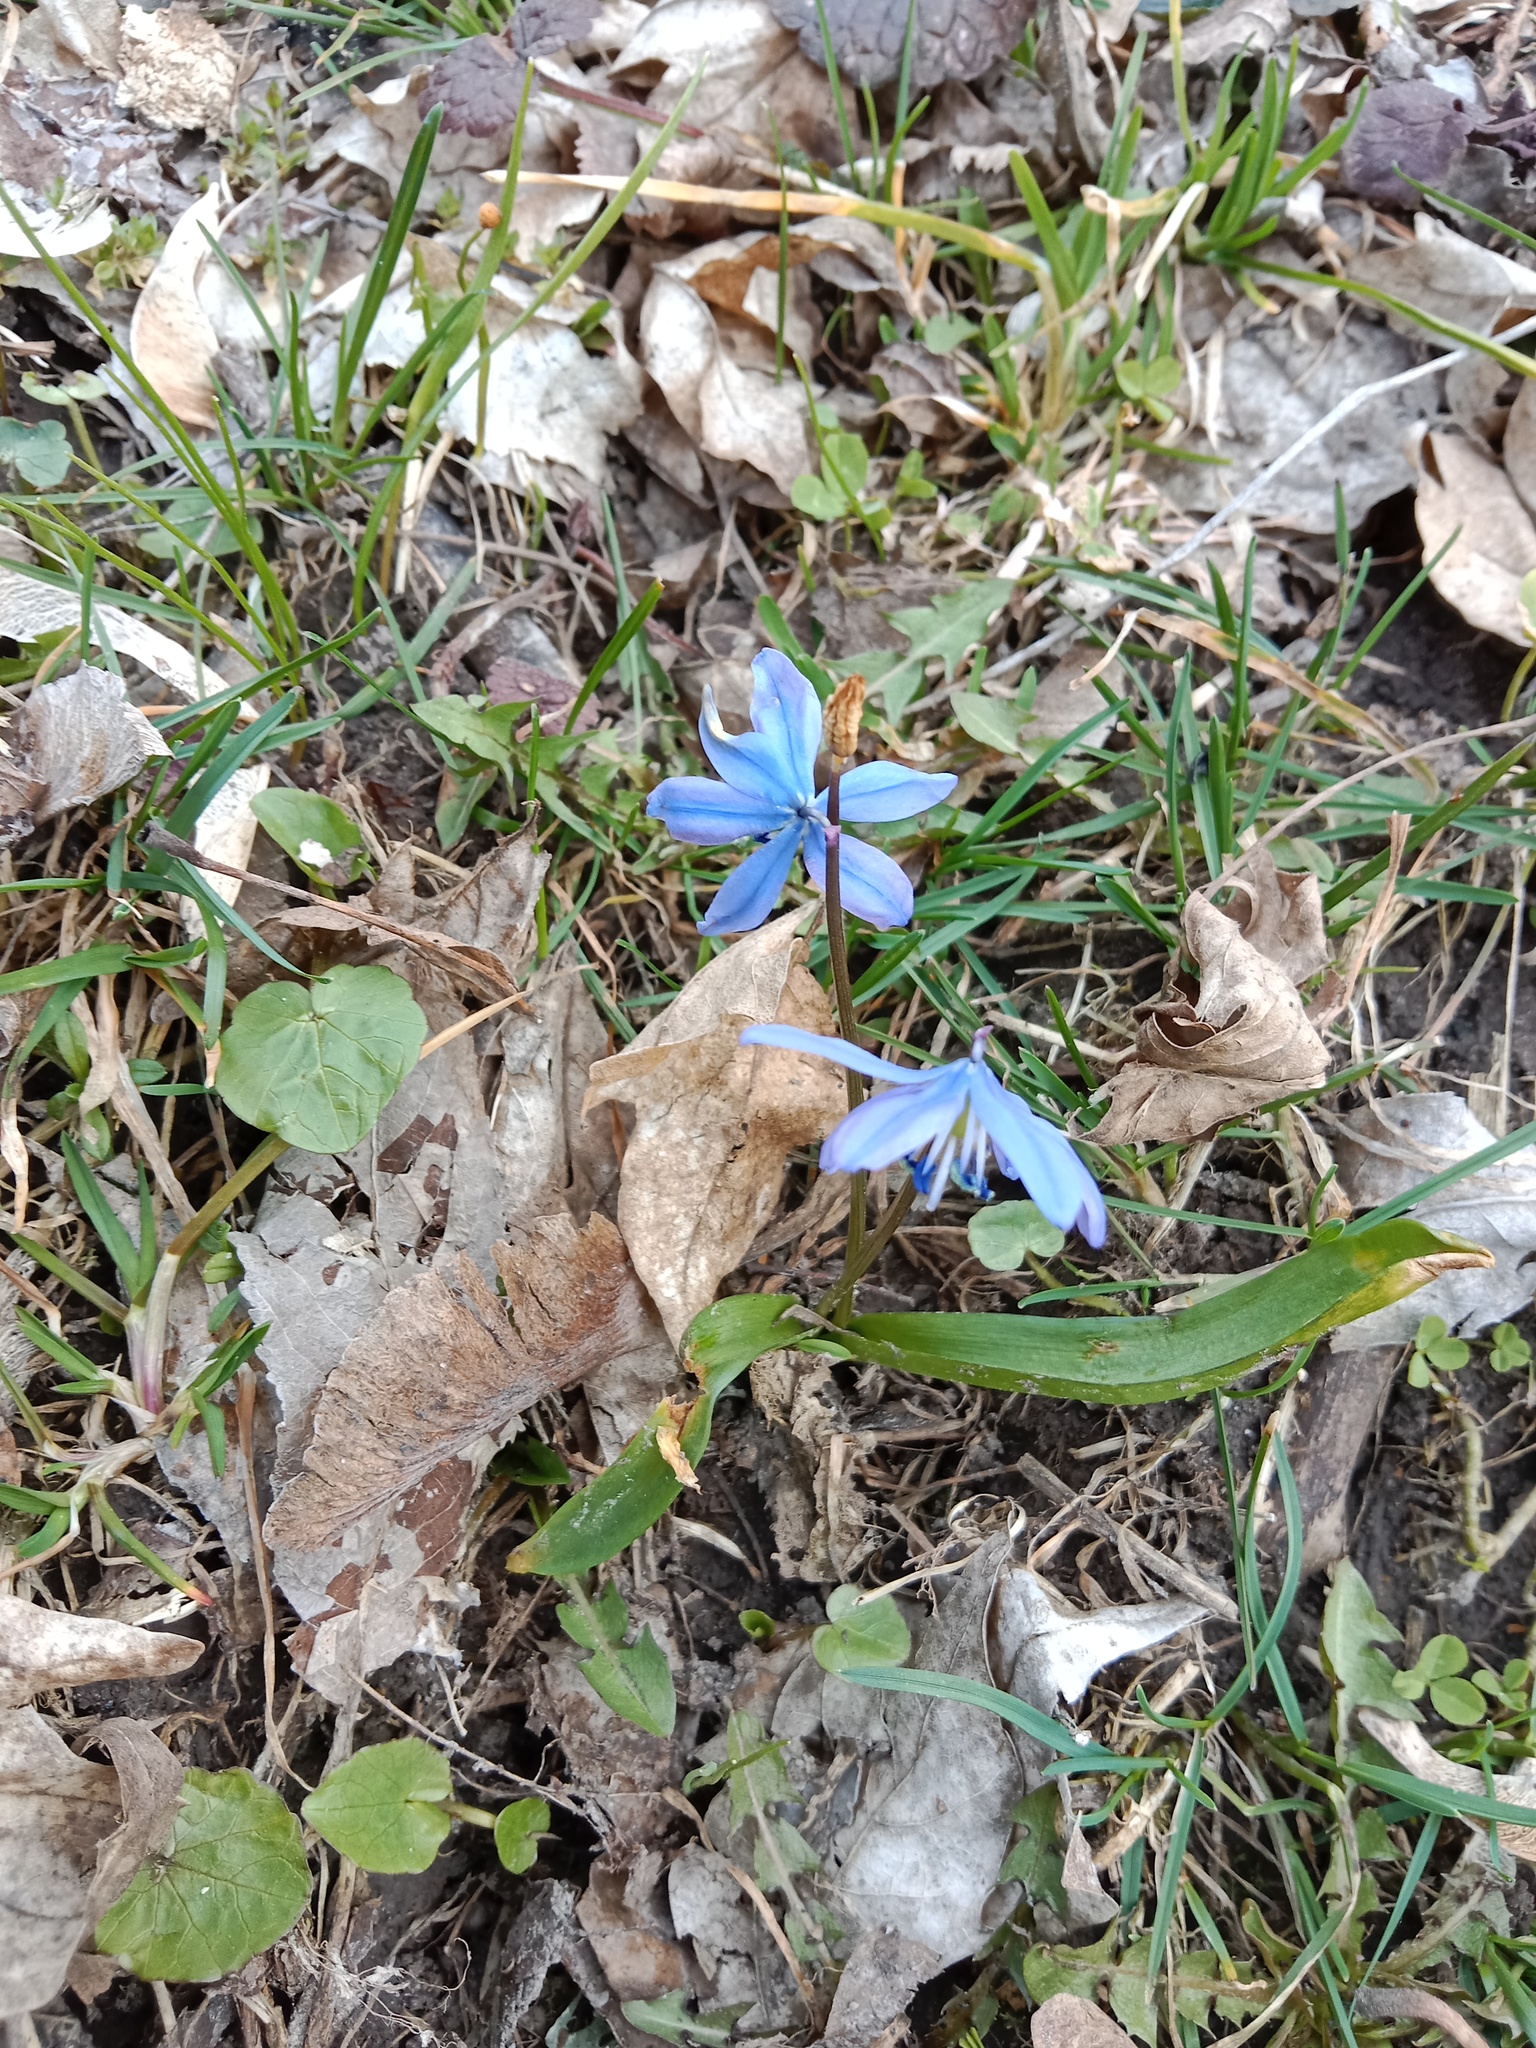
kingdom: Plantae
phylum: Tracheophyta
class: Liliopsida
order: Asparagales
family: Asparagaceae
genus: Scilla
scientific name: Scilla siberica
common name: Siberian squill
